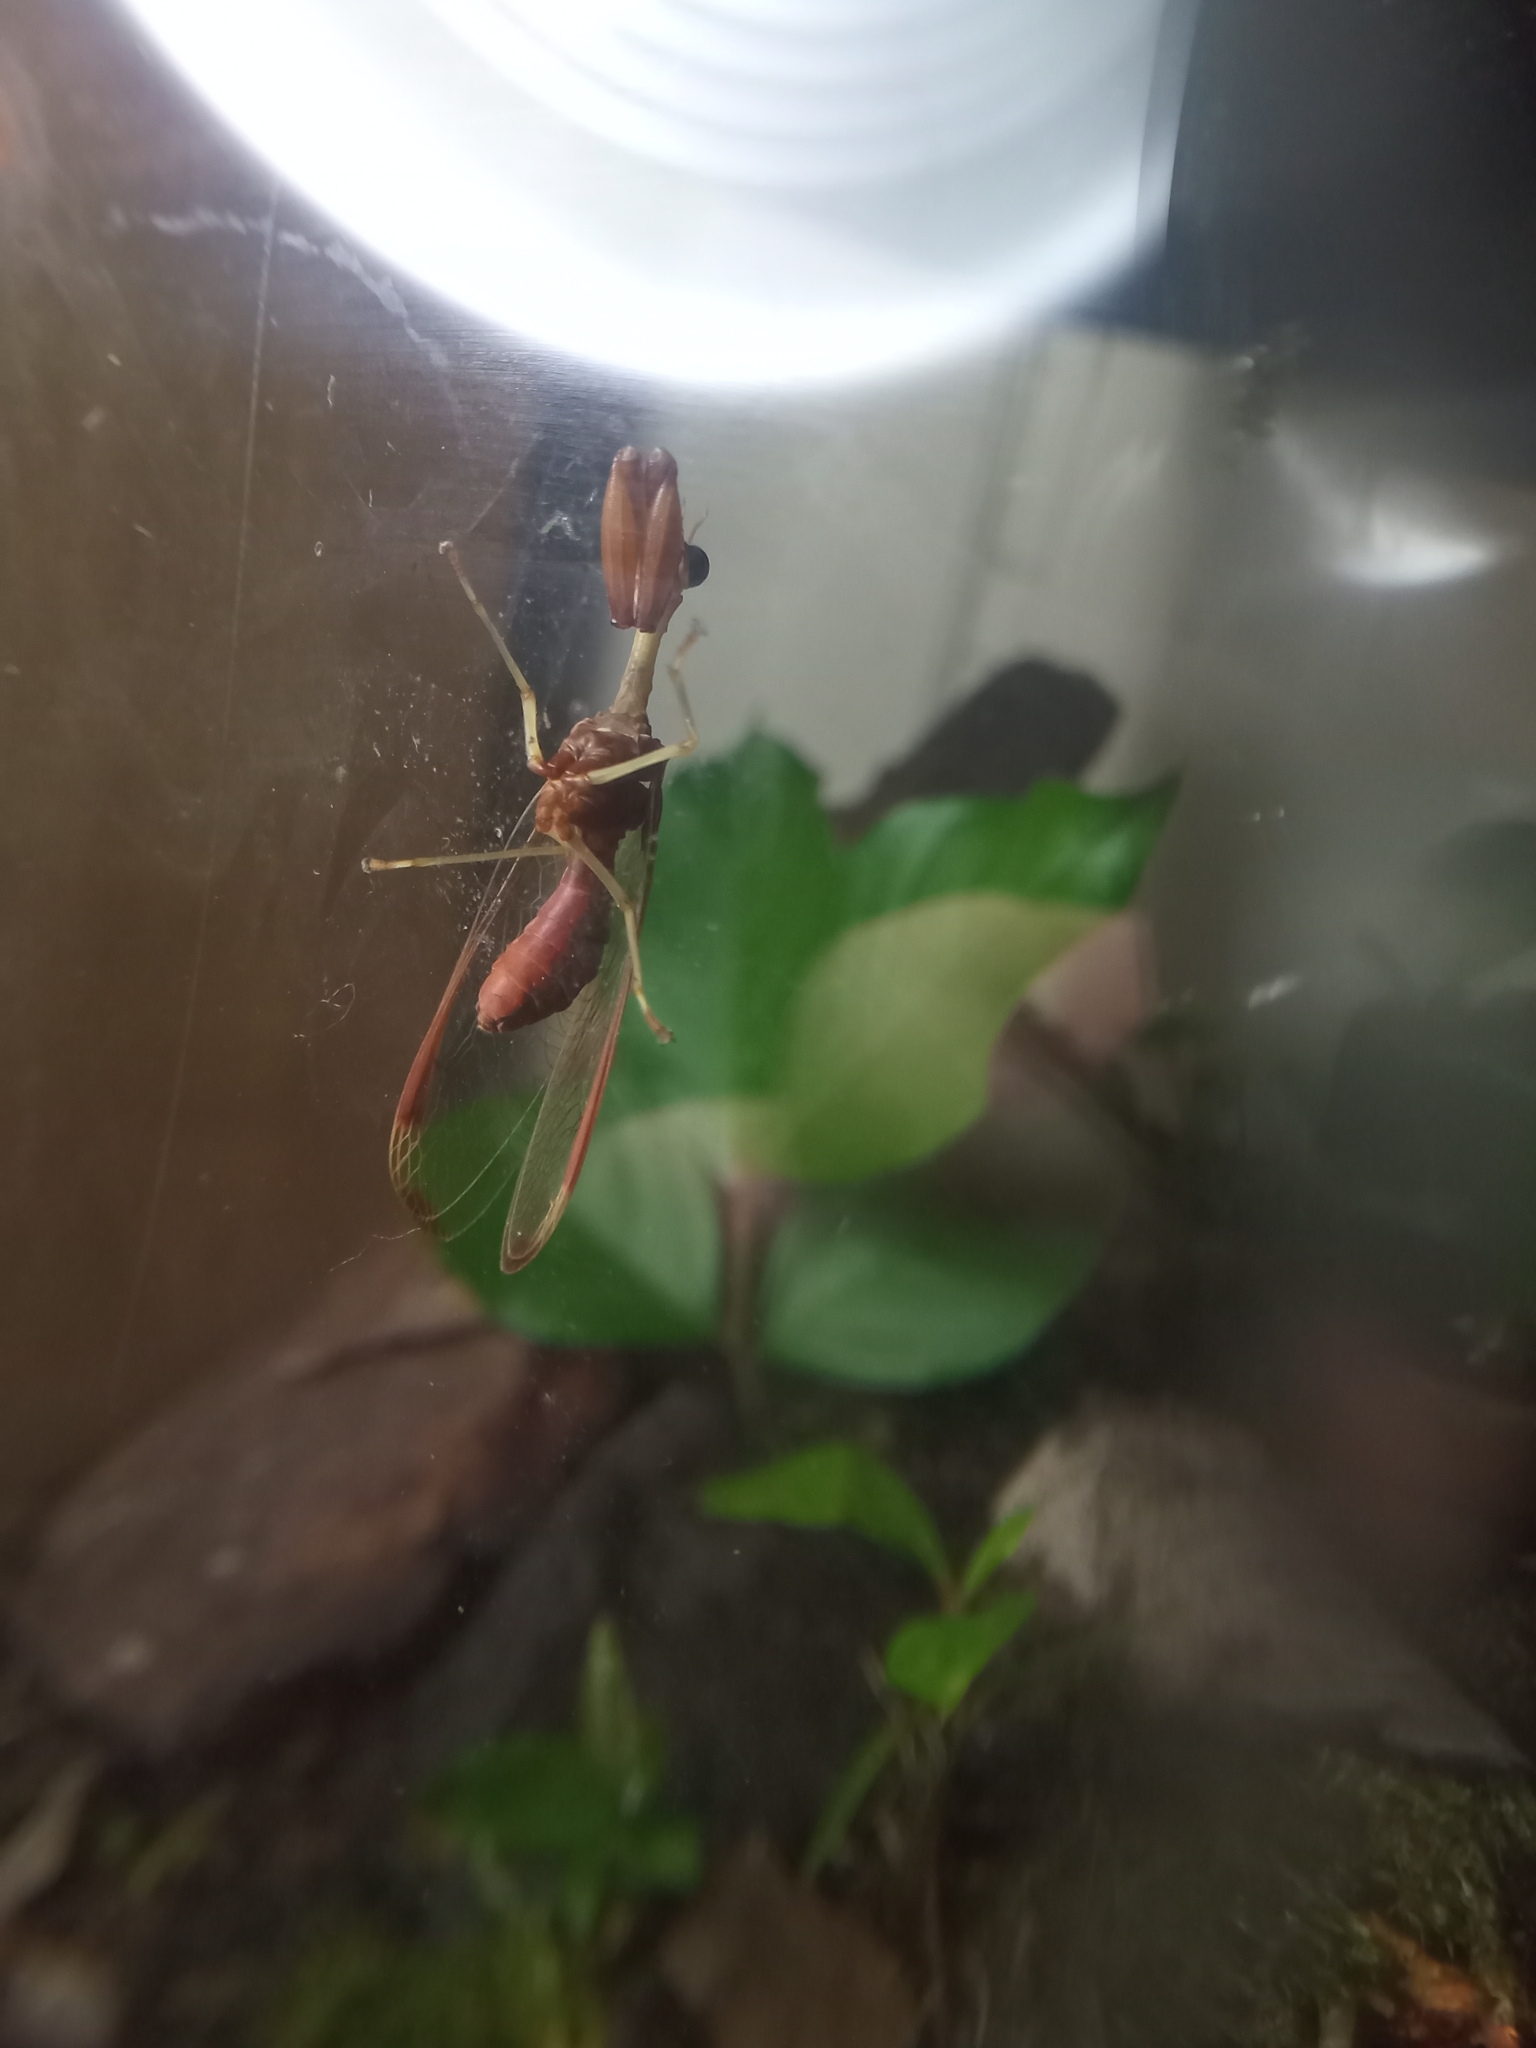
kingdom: Animalia
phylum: Arthropoda
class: Insecta
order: Neuroptera
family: Mantispidae
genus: Dicromantispa
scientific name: Dicromantispa interrupta
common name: Four-spotted mantidfly
